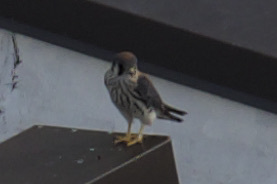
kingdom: Animalia
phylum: Chordata
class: Aves
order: Falconiformes
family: Falconidae
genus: Falco
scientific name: Falco sparverius
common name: American kestrel
